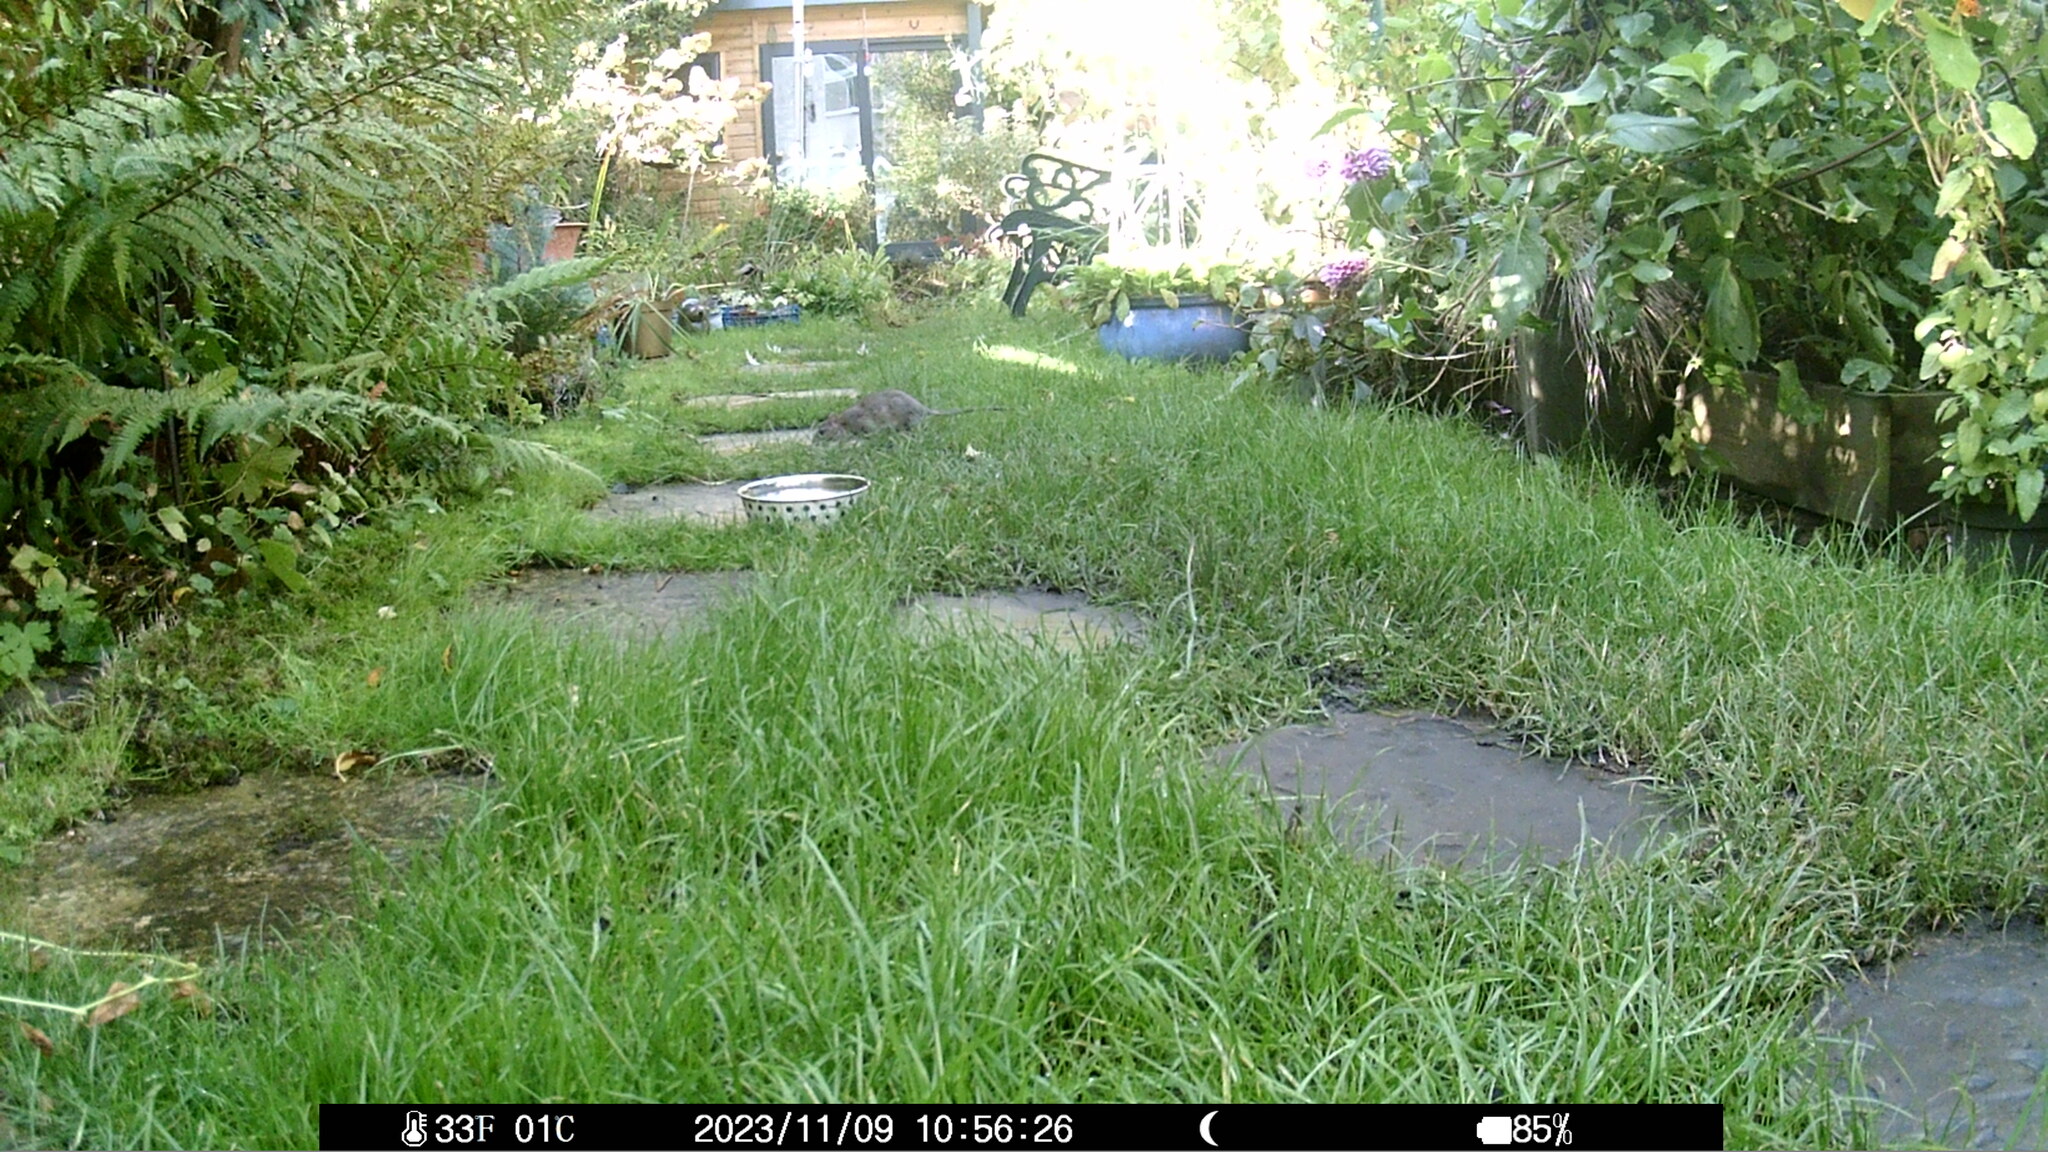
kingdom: Animalia
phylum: Chordata
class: Mammalia
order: Rodentia
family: Muridae
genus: Rattus
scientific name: Rattus norvegicus
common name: Brown rat
